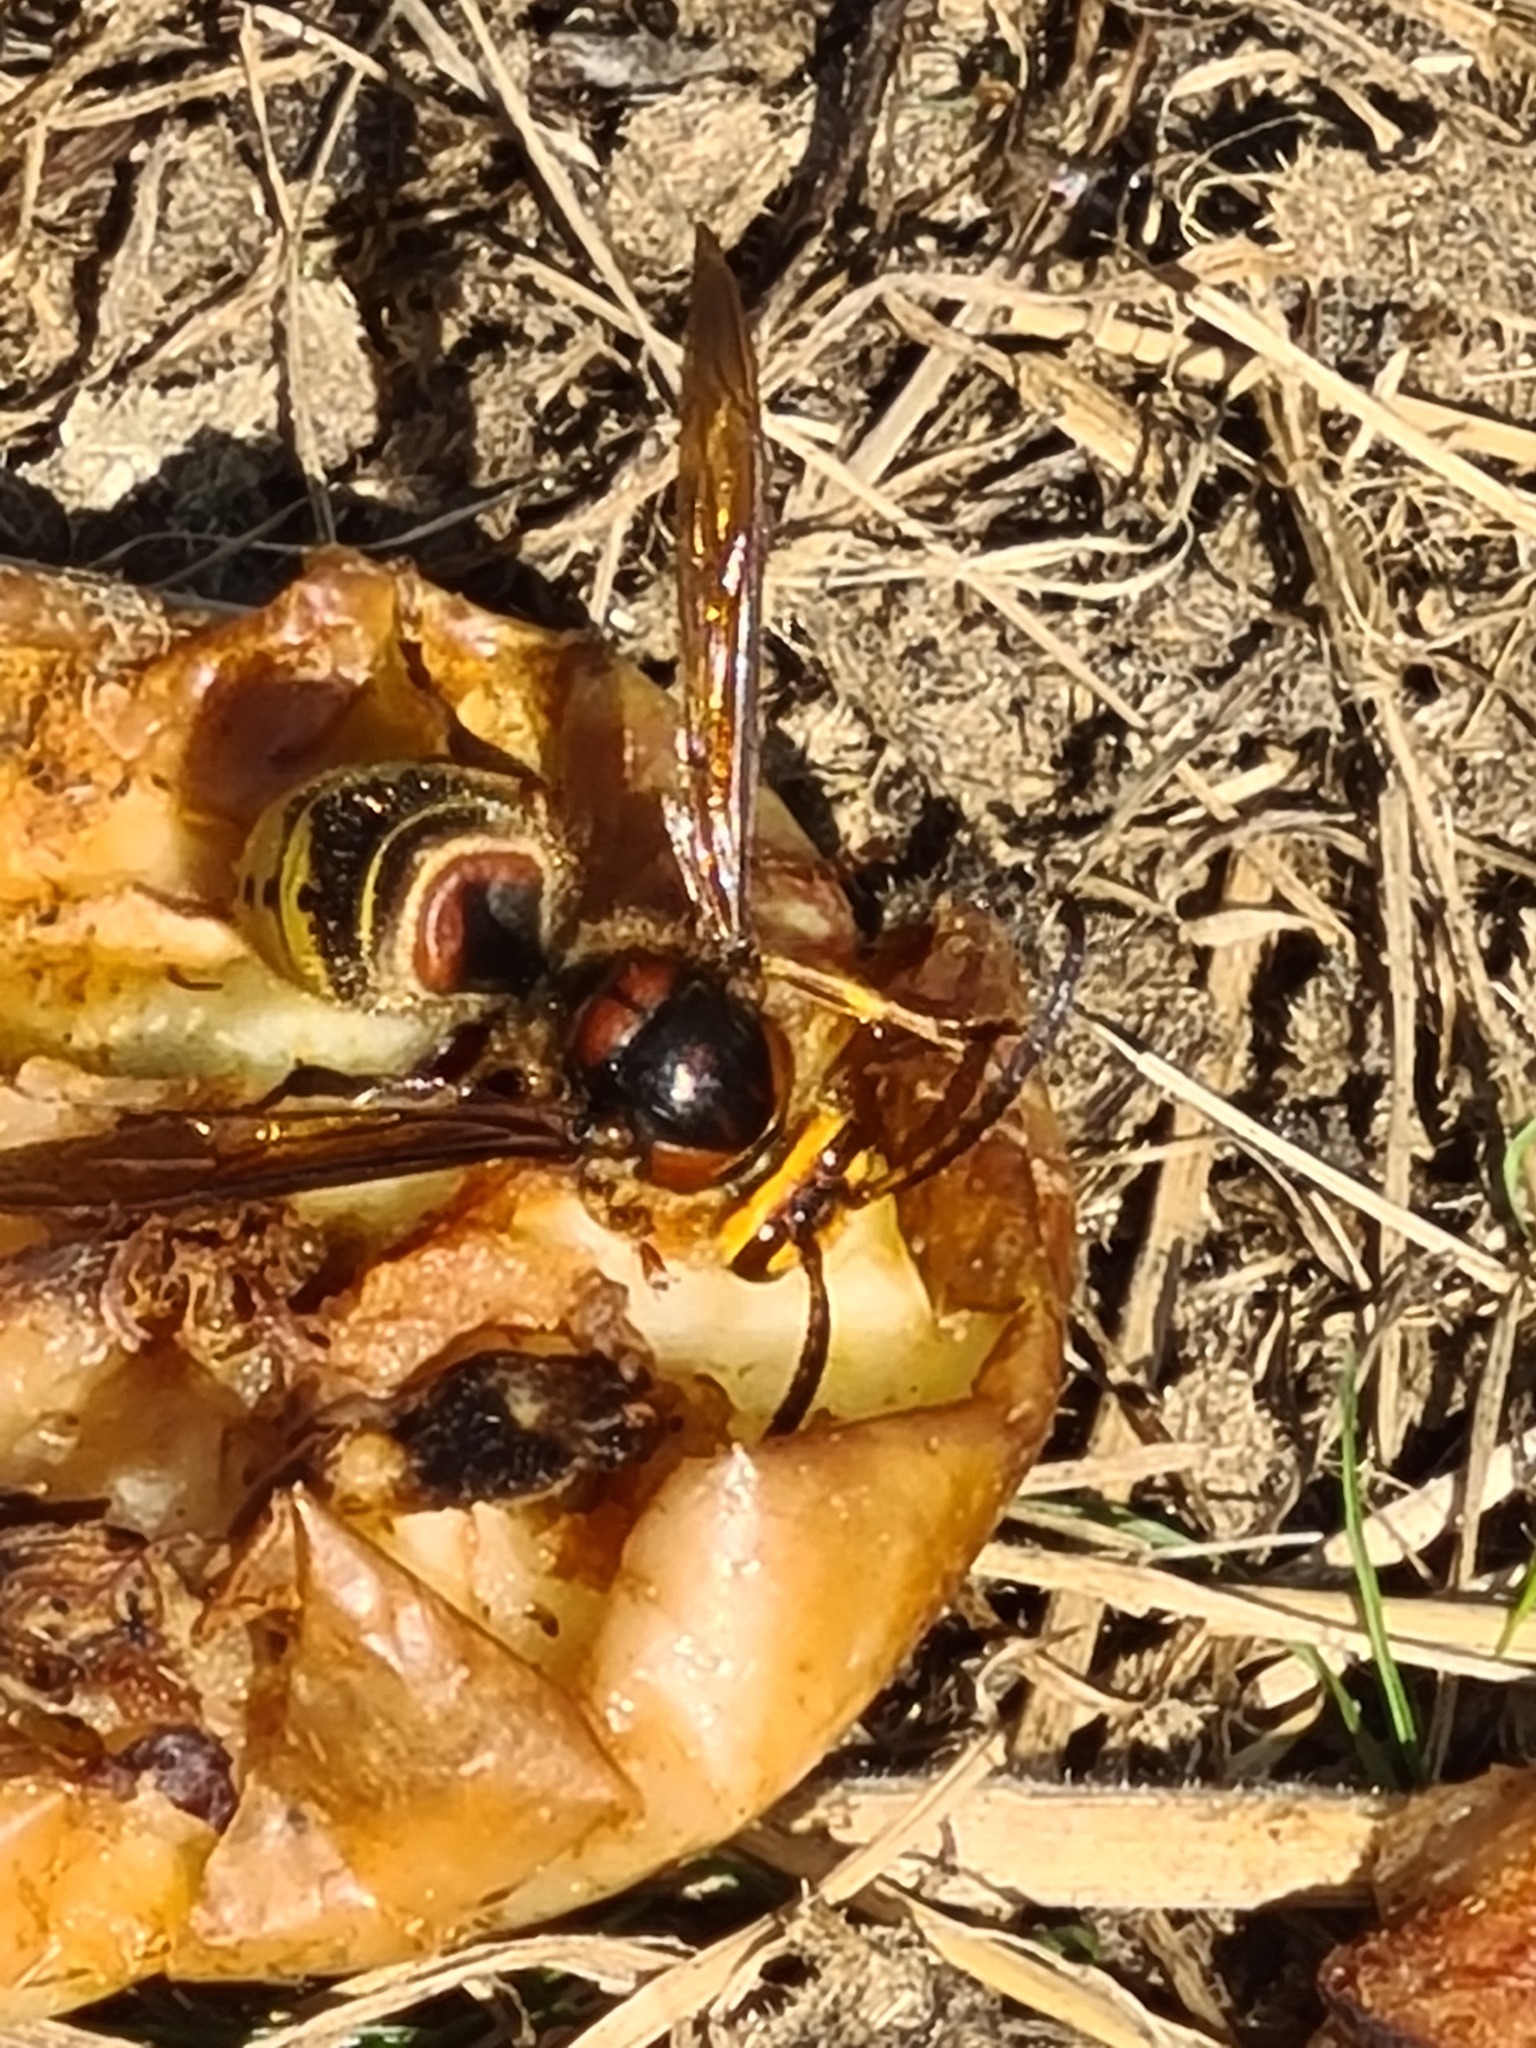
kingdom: Animalia
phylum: Arthropoda
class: Insecta
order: Hymenoptera
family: Vespidae
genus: Vespa
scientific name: Vespa crabro
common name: Hornet
